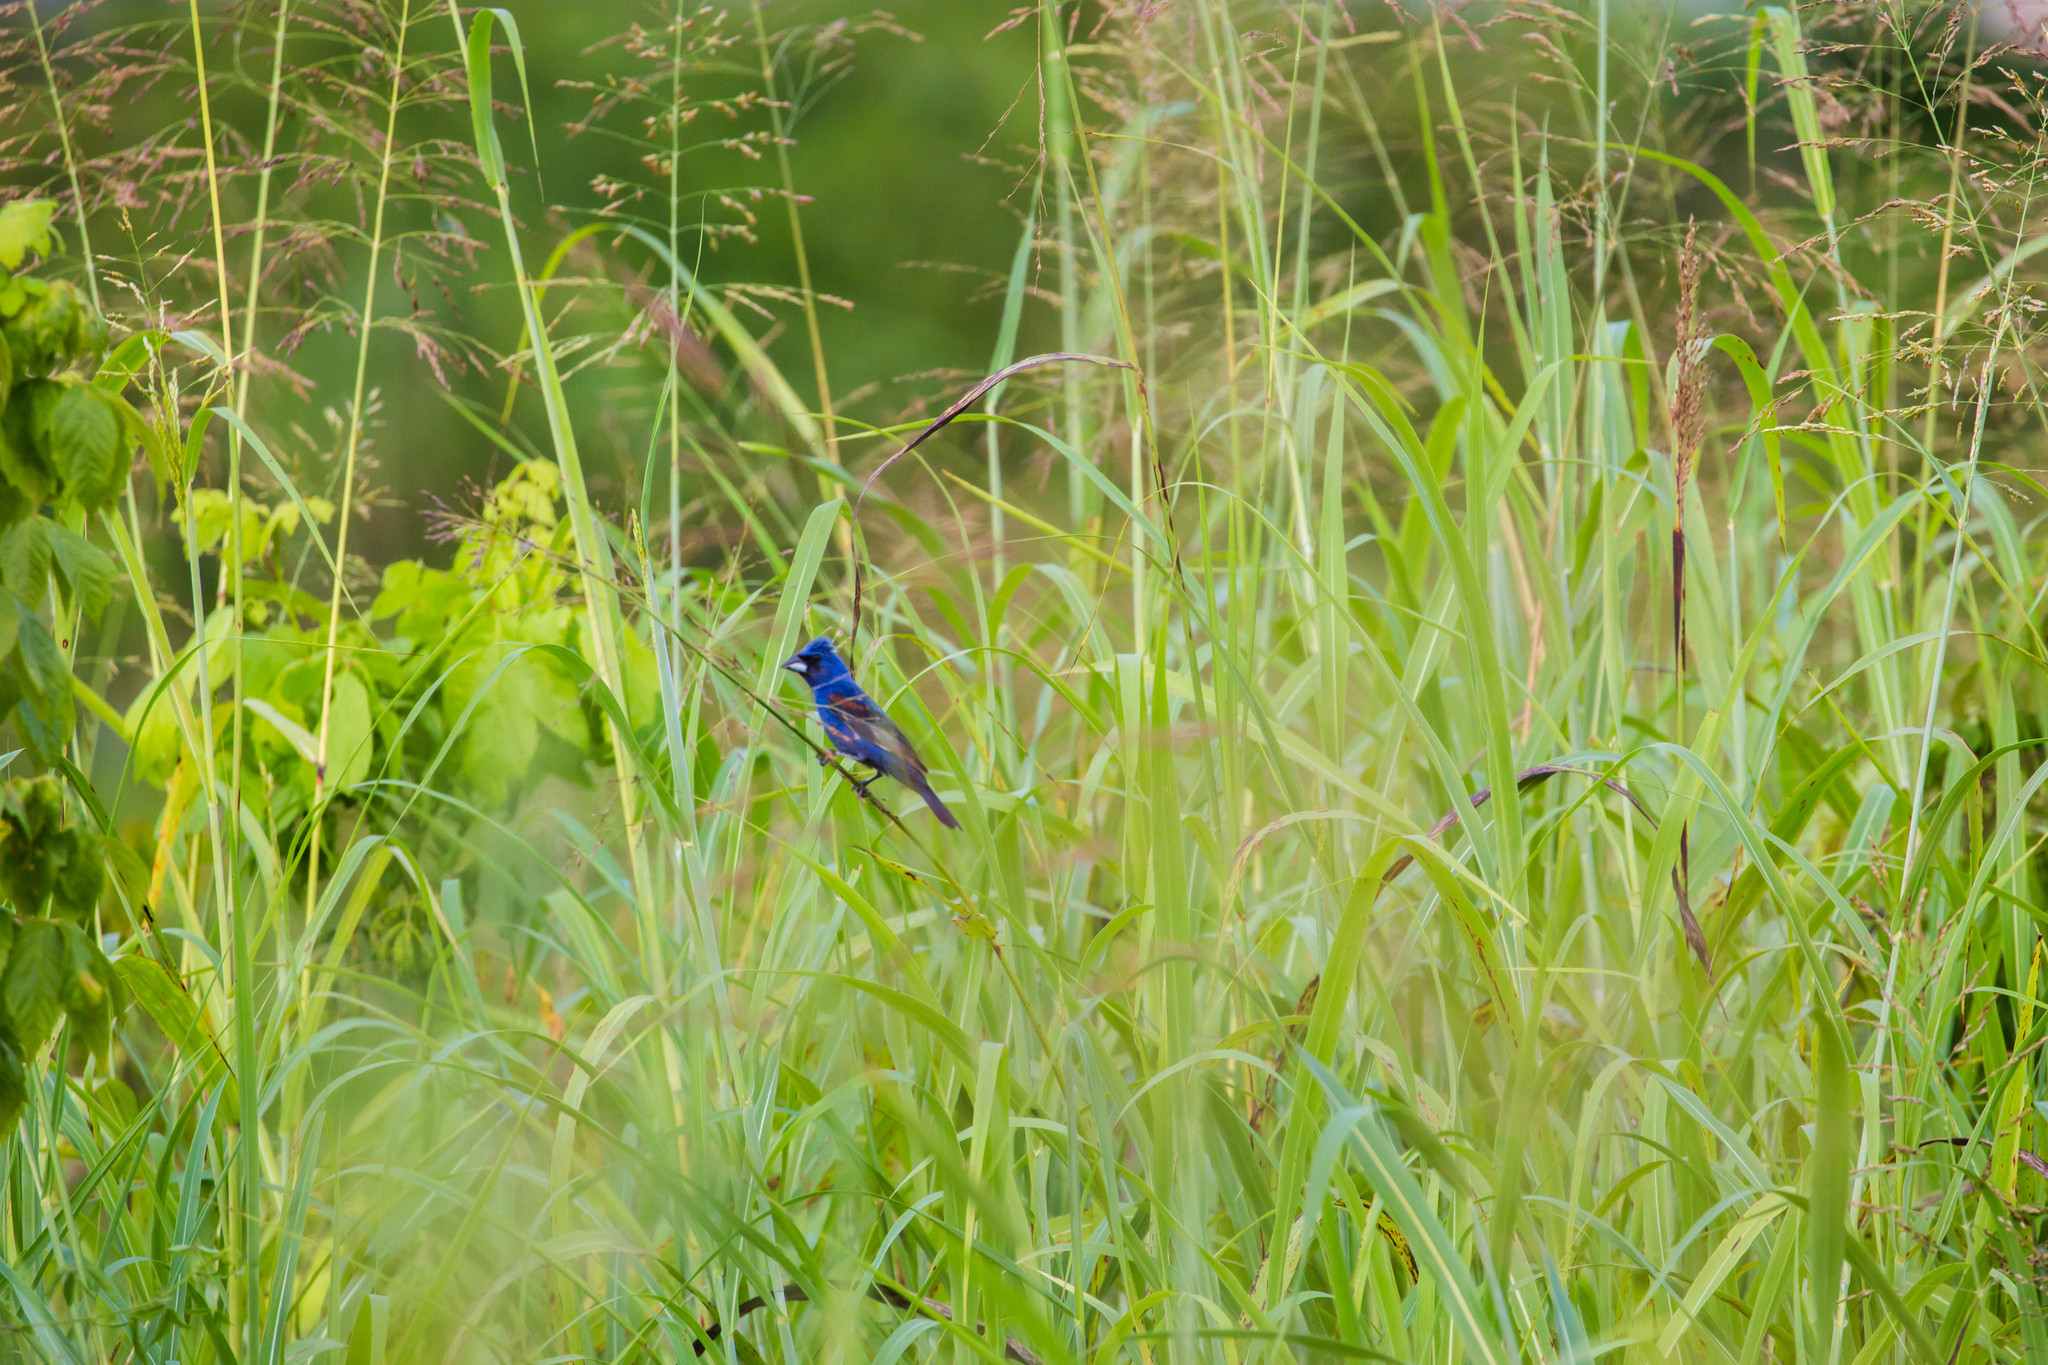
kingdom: Animalia
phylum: Chordata
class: Aves
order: Passeriformes
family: Cardinalidae
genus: Passerina
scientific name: Passerina caerulea
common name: Blue grosbeak
